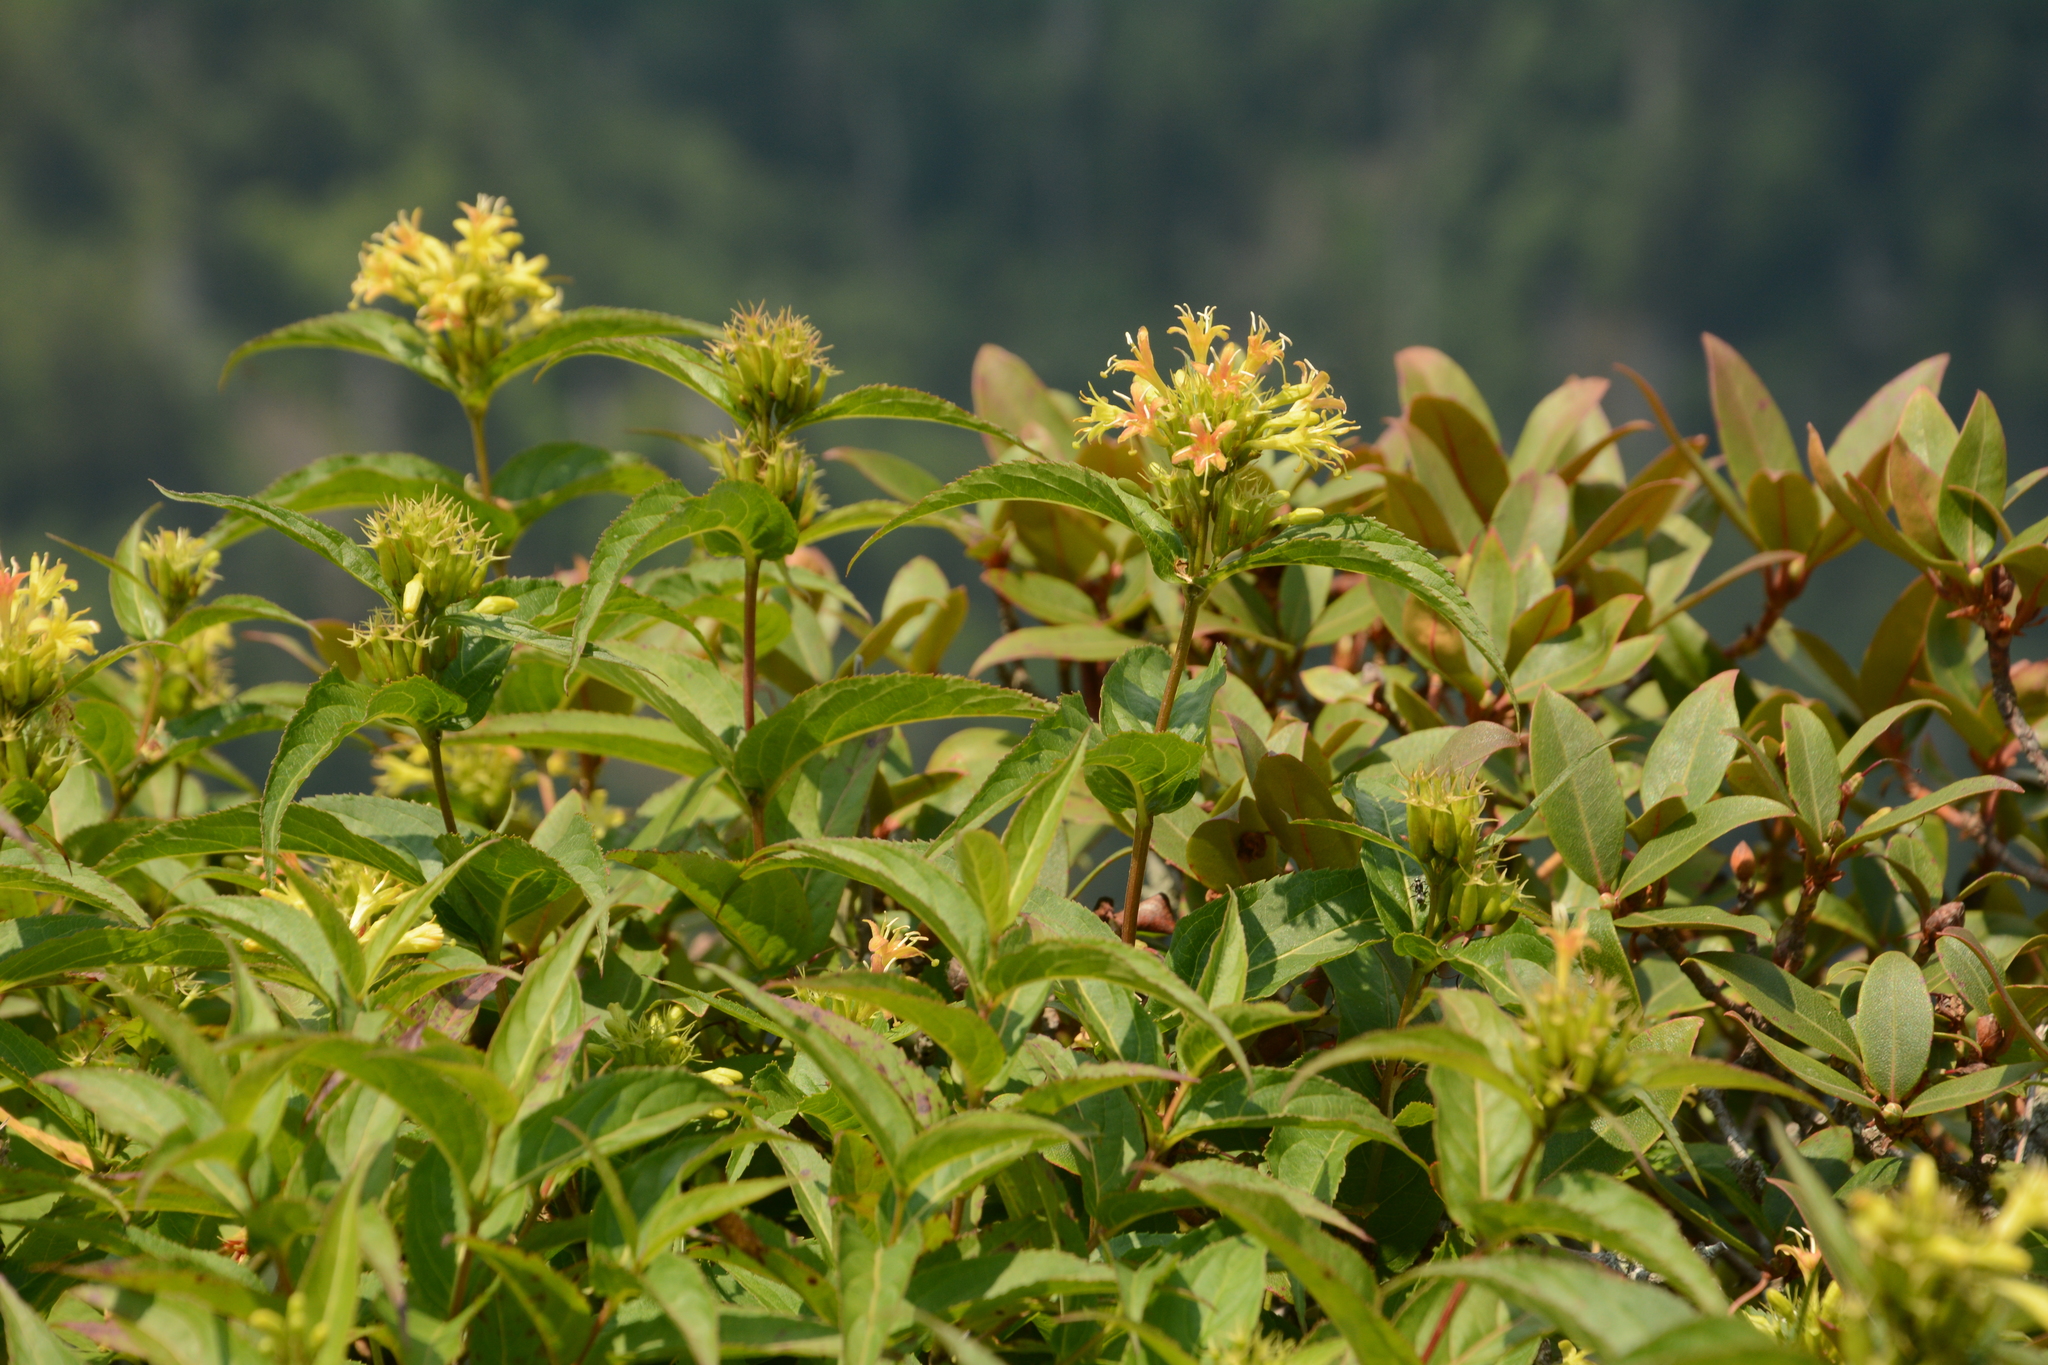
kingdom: Plantae
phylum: Tracheophyta
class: Magnoliopsida
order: Dipsacales
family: Caprifoliaceae
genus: Diervilla
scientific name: Diervilla sessilifolia
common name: Bush-honeysuckle
